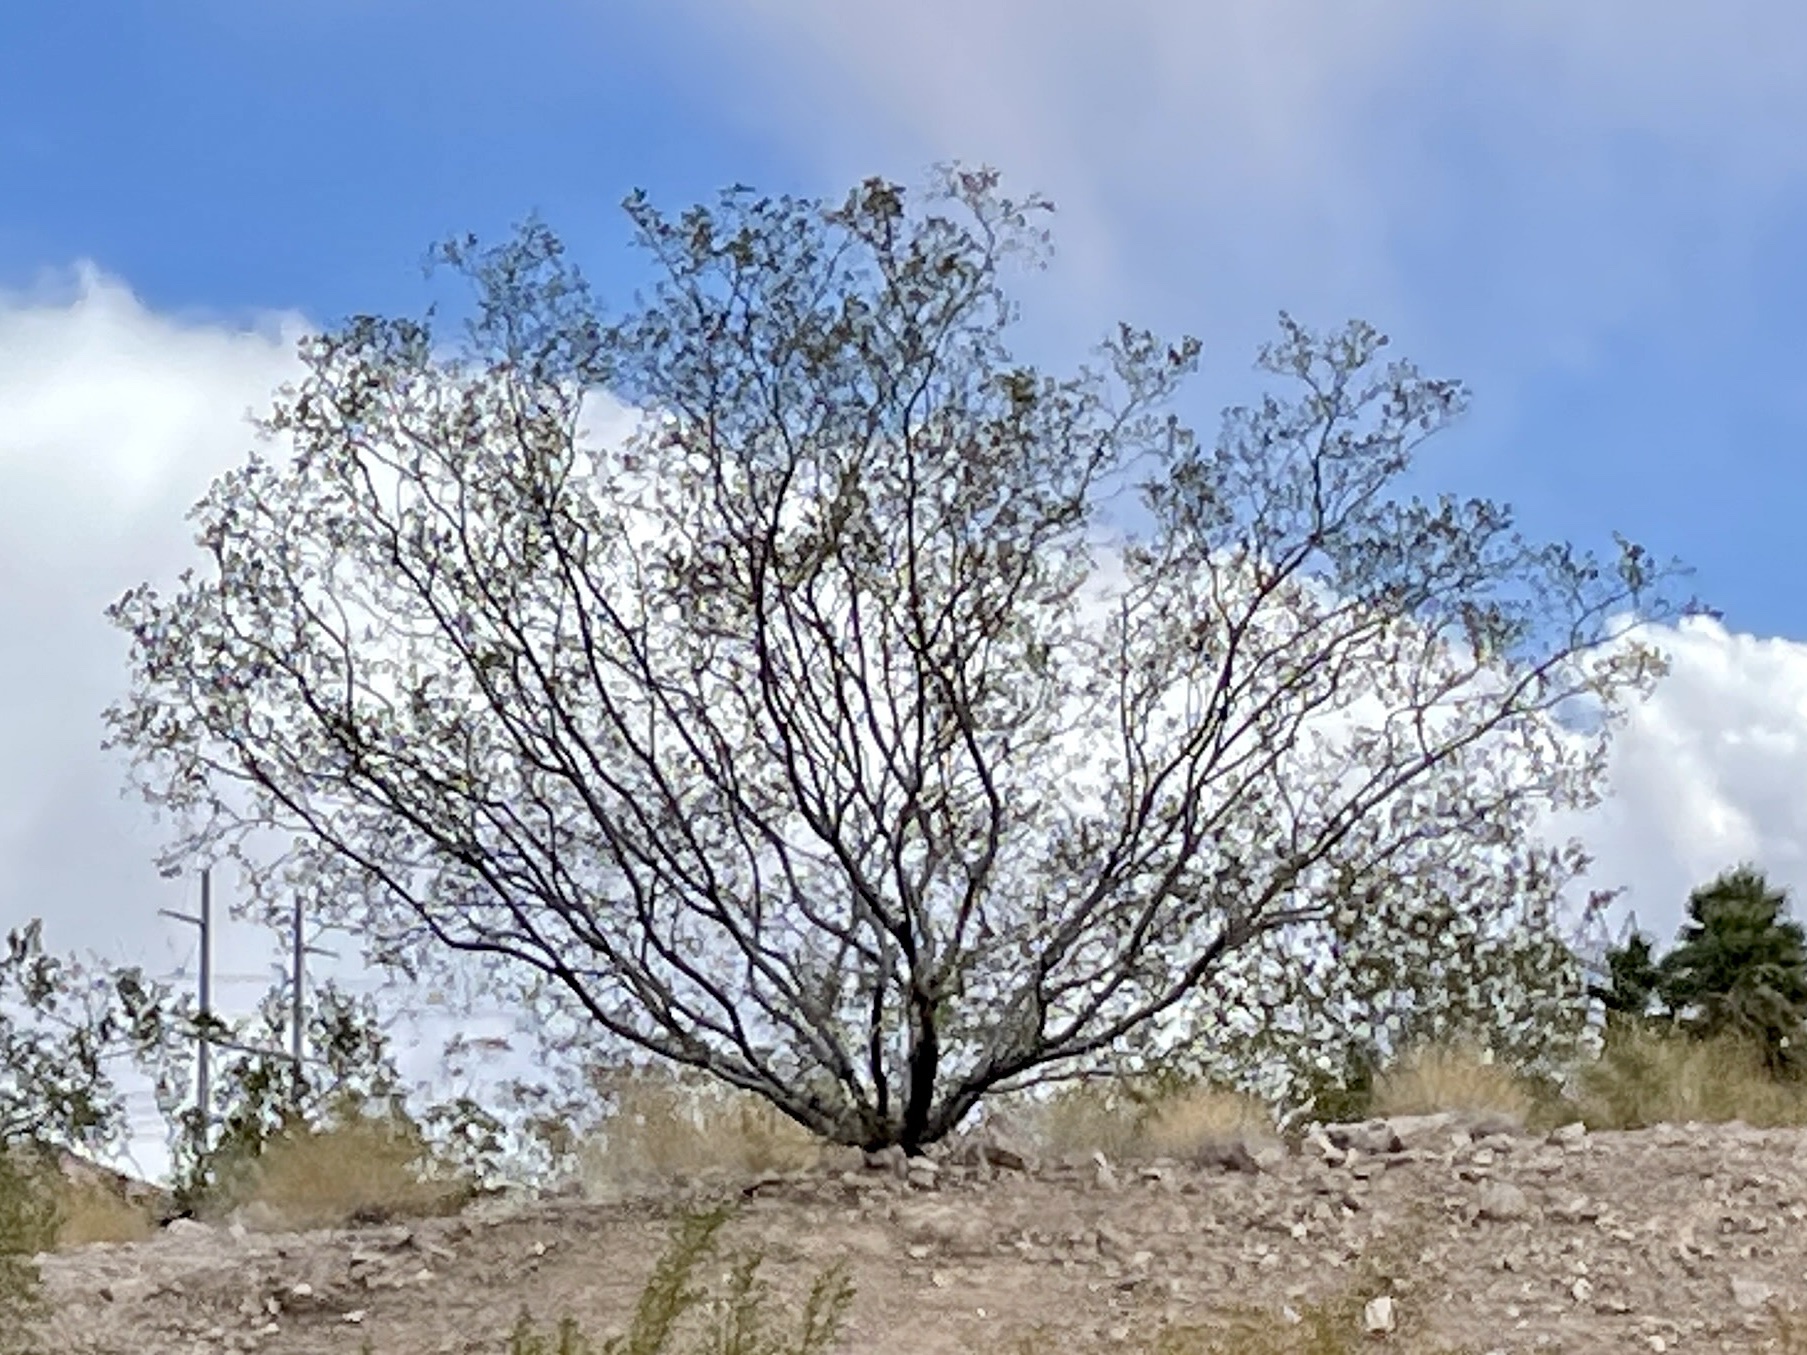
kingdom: Plantae
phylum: Tracheophyta
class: Magnoliopsida
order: Zygophyllales
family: Zygophyllaceae
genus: Larrea
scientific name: Larrea tridentata
